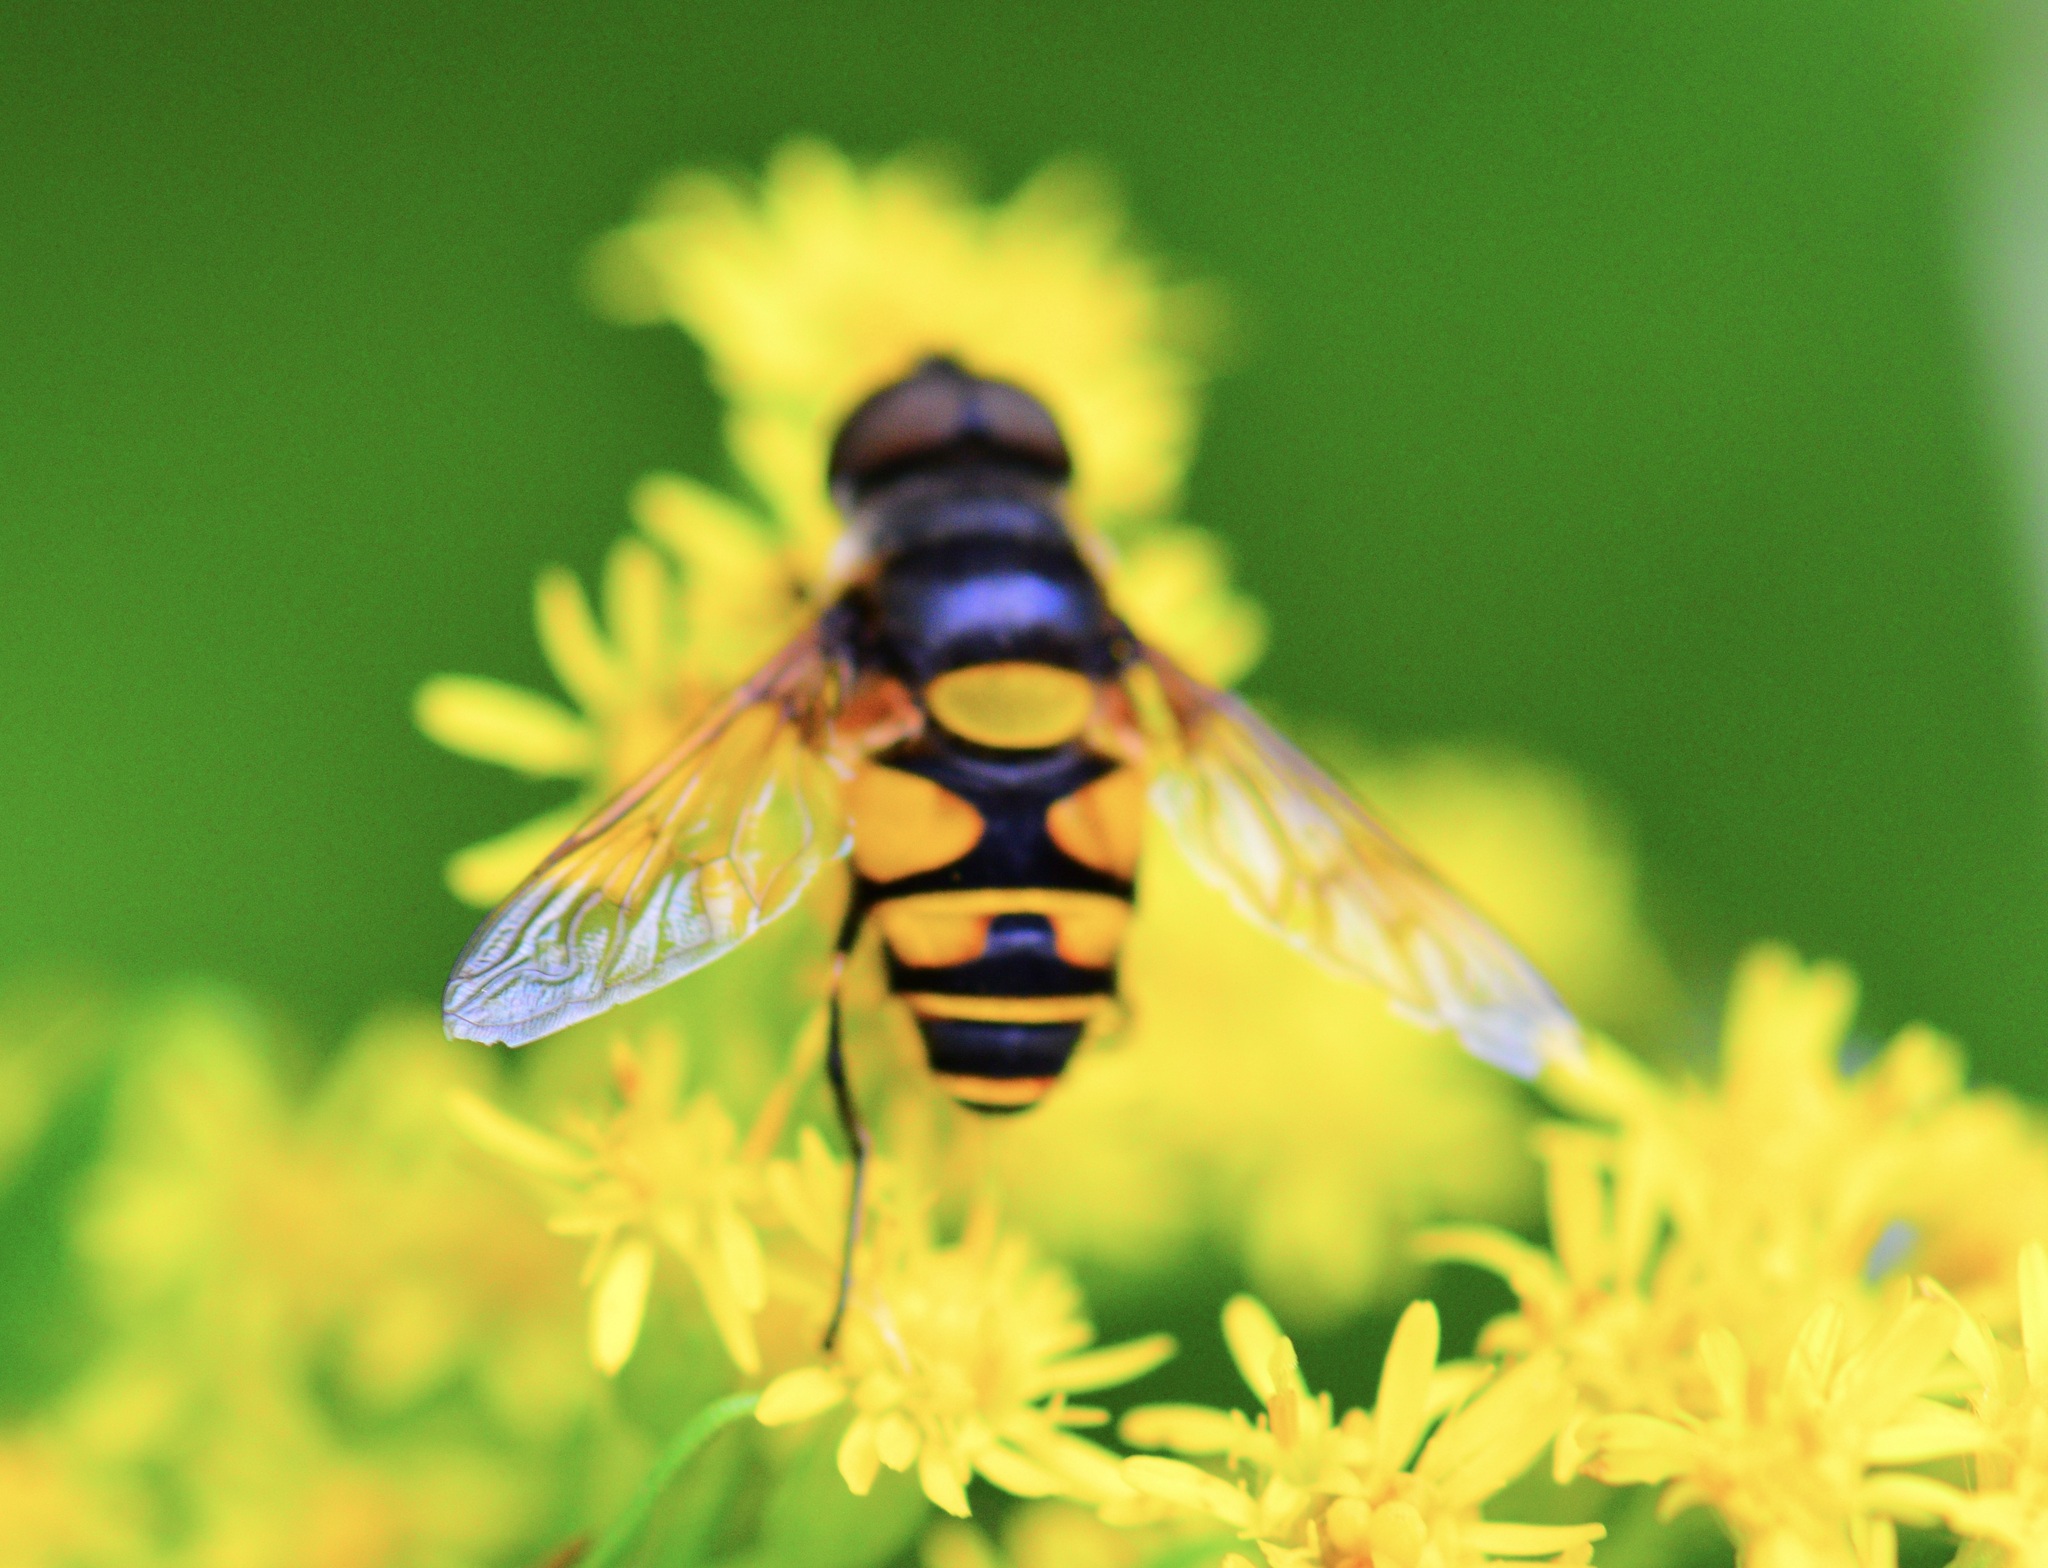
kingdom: Animalia
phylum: Arthropoda
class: Insecta
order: Diptera
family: Syrphidae
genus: Eristalis
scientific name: Eristalis transversa
